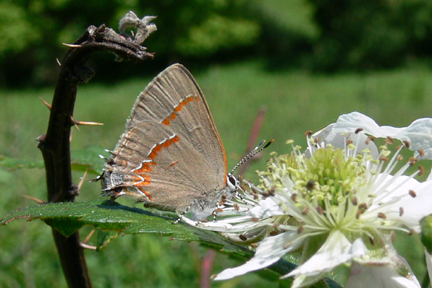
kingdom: Animalia
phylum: Arthropoda
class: Insecta
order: Lepidoptera
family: Lycaenidae
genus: Calycopis
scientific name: Calycopis cecrops
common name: Red-banded hairstreak
